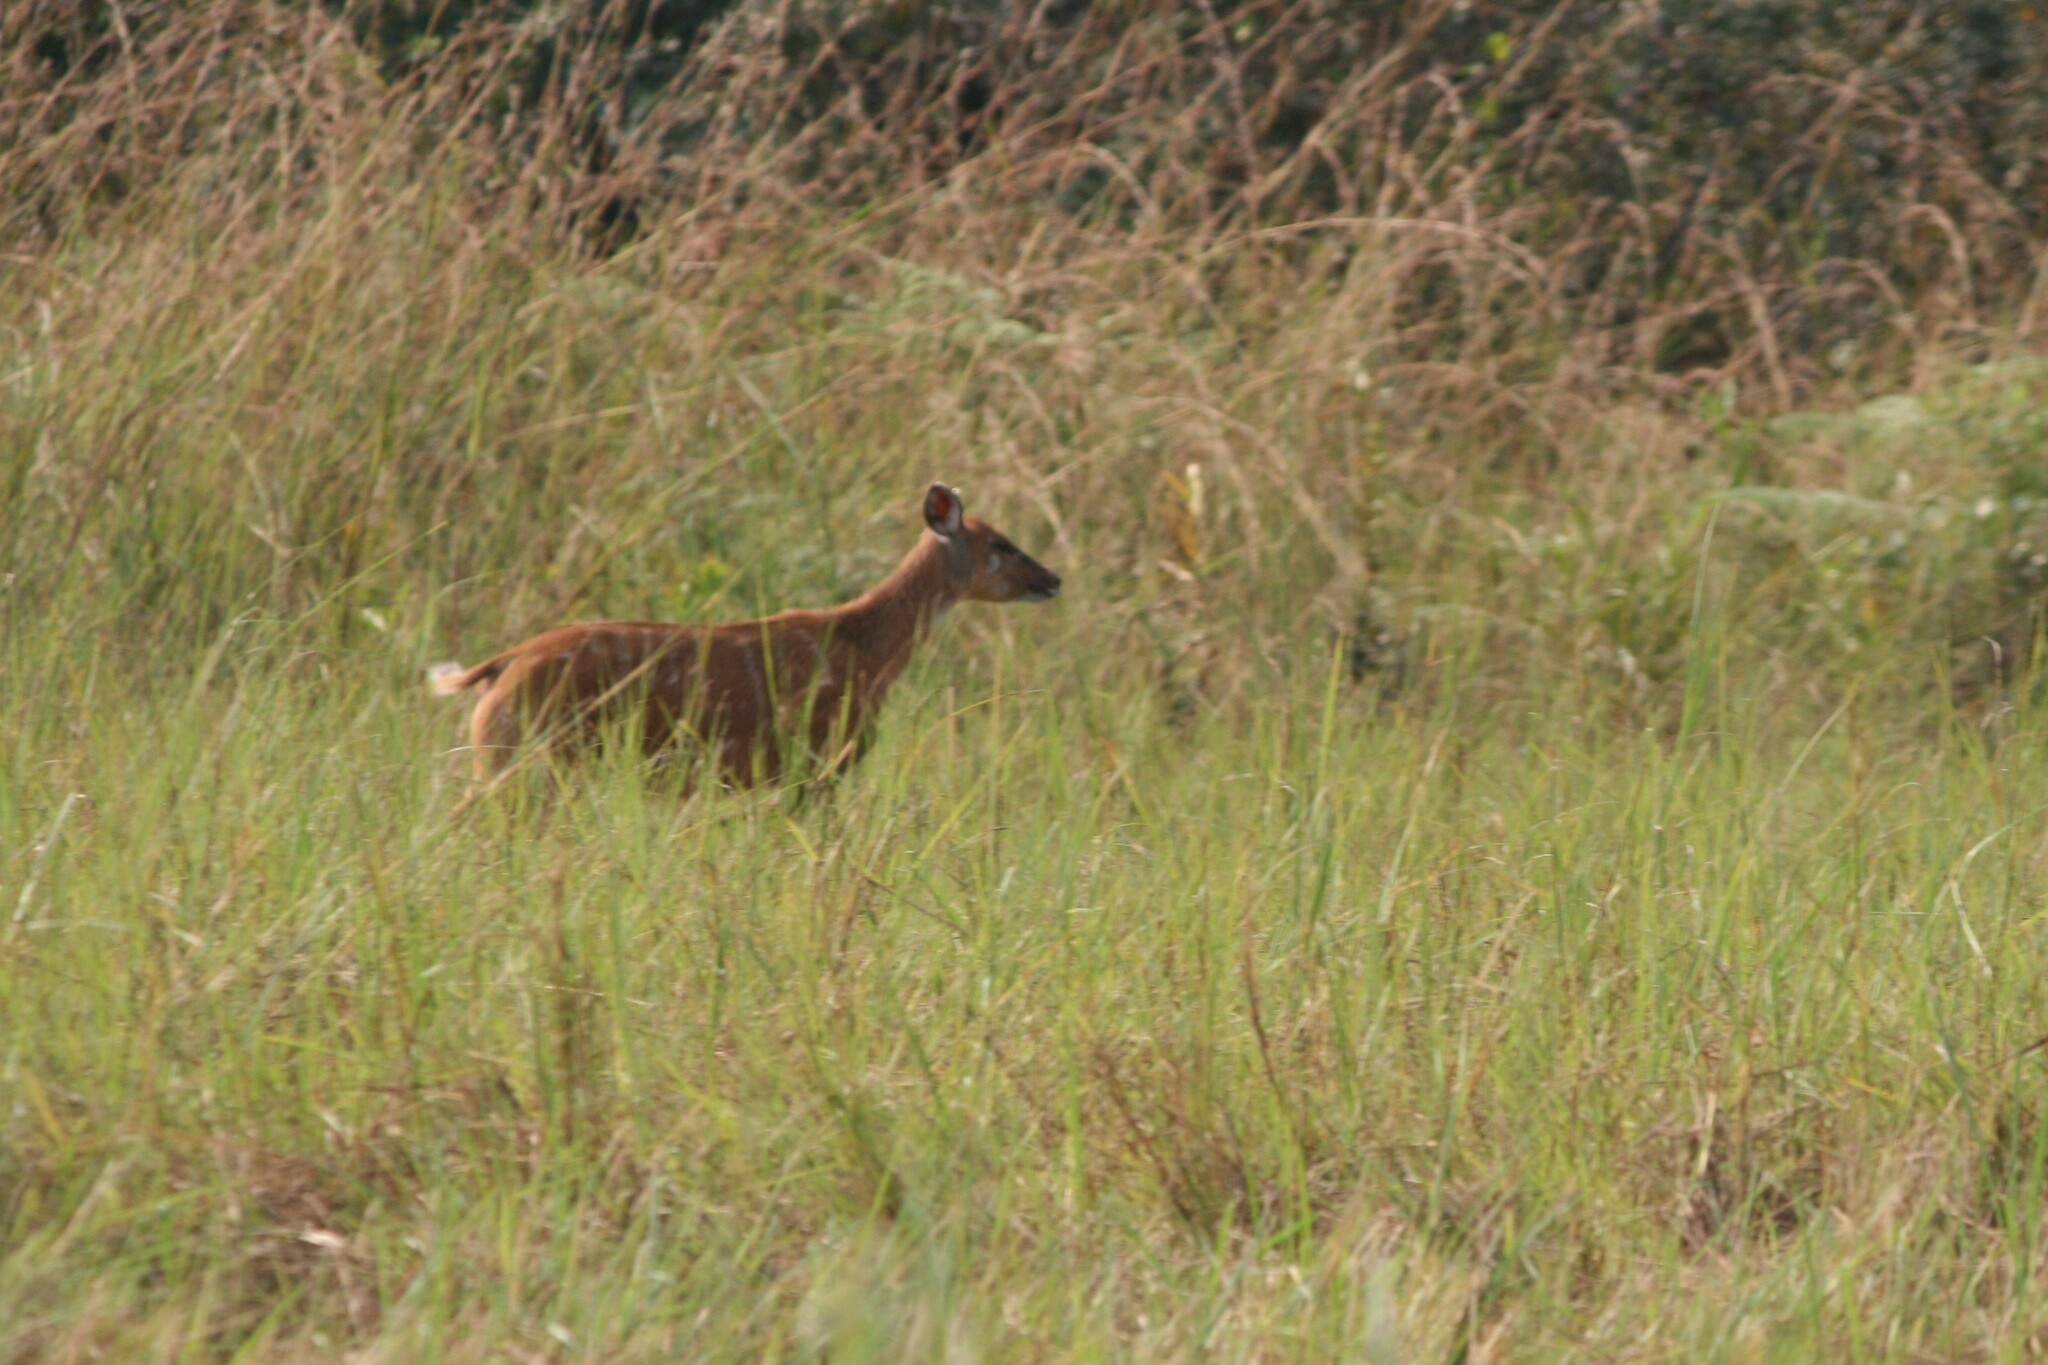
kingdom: Animalia
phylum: Chordata
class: Mammalia
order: Artiodactyla
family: Bovidae
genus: Tragelaphus
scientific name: Tragelaphus spekii
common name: Sitatunga
